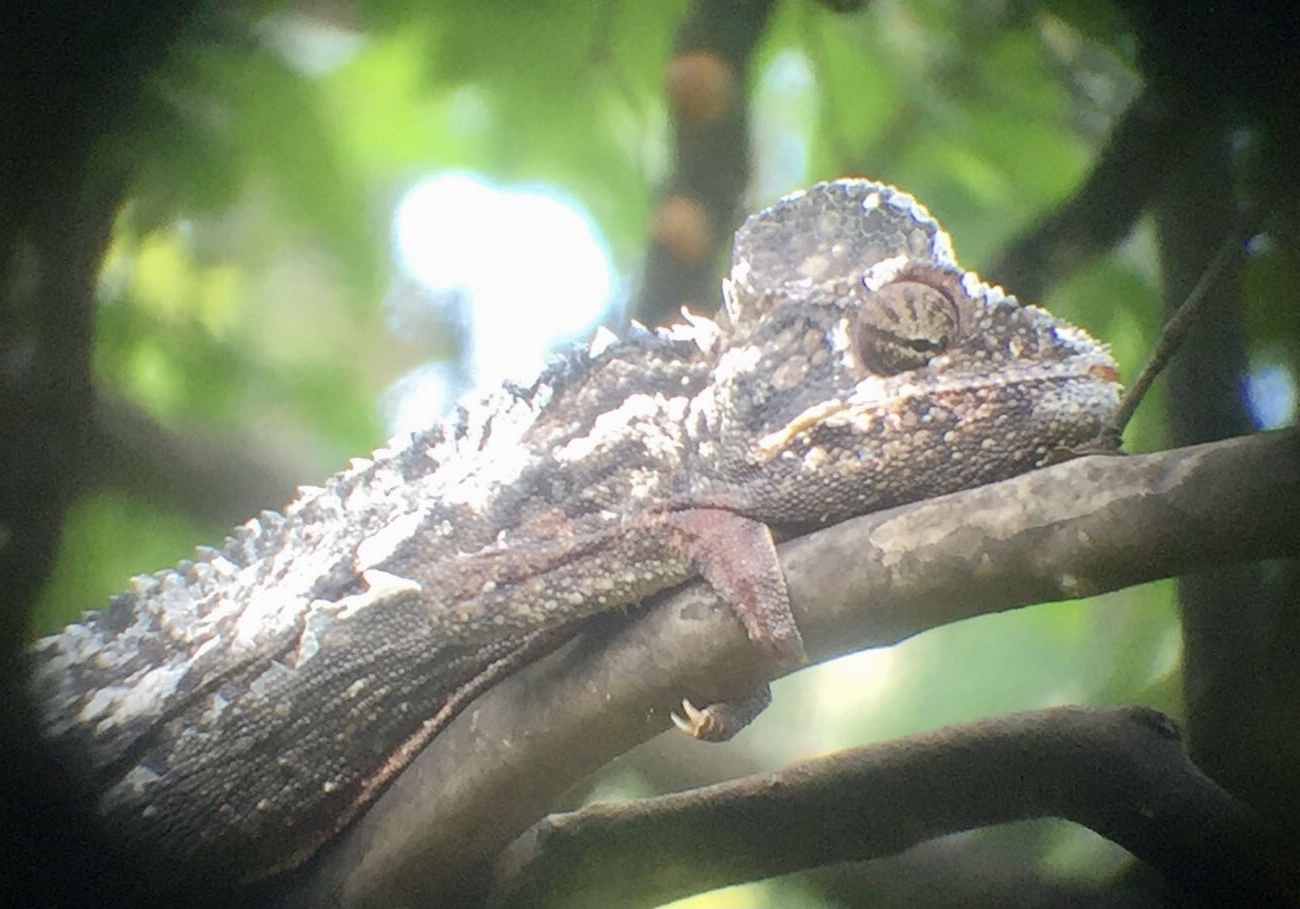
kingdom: Animalia
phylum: Chordata
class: Squamata
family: Chamaeleonidae
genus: Furcifer
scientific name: Furcifer oustaleti
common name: Oustalet's chameleon
